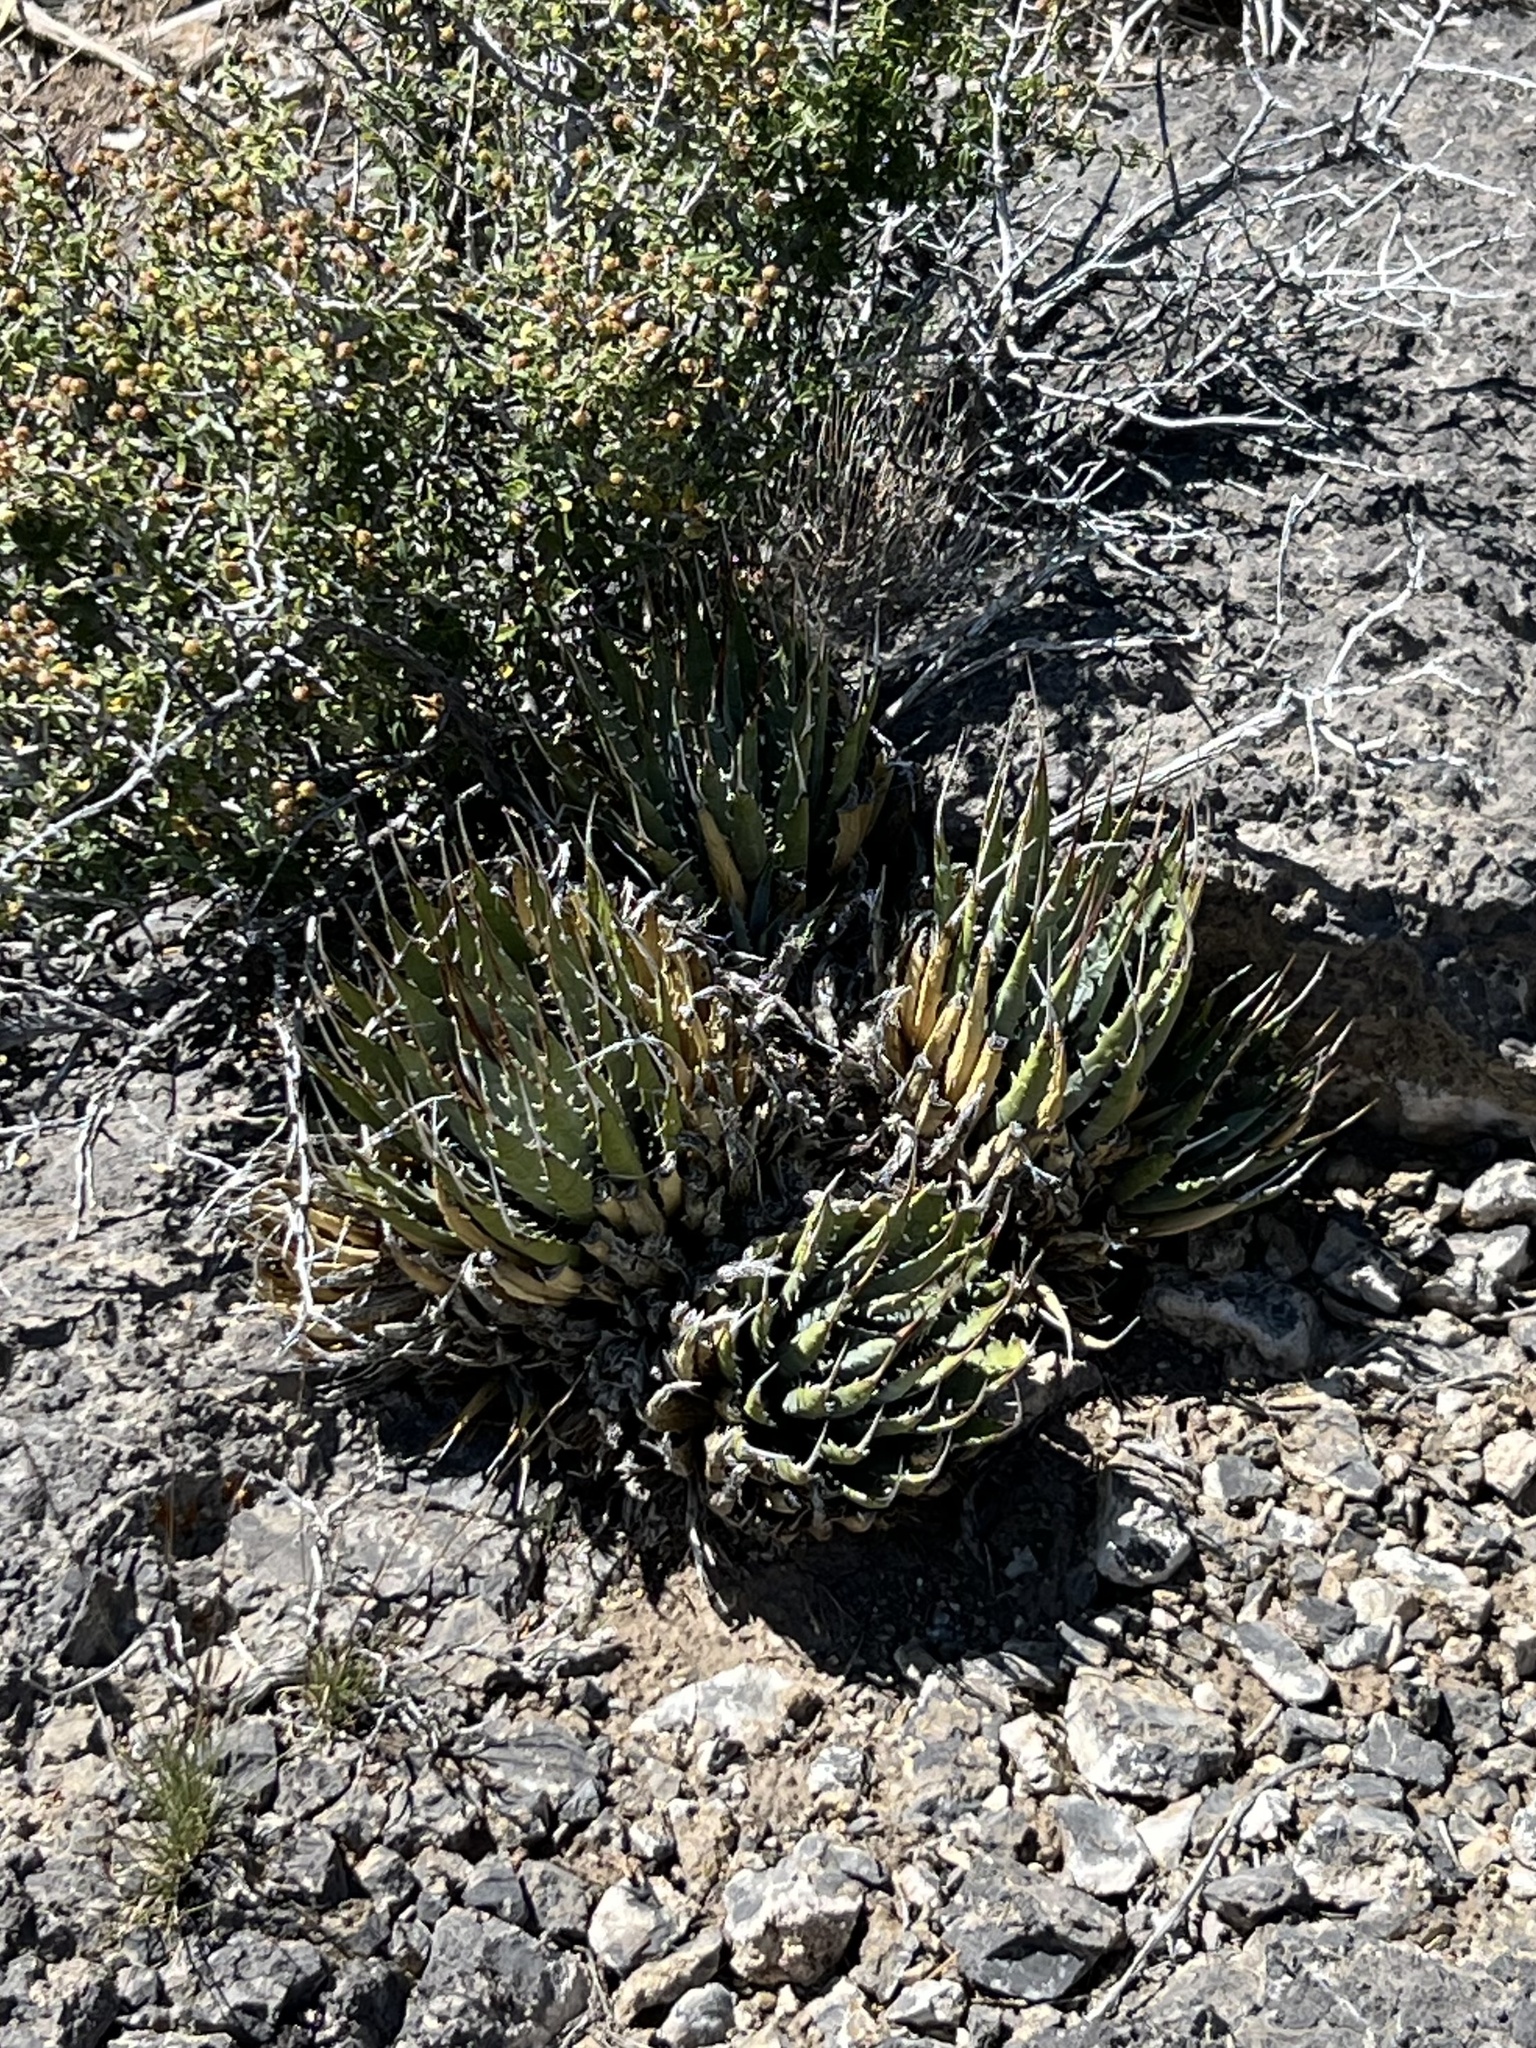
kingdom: Plantae
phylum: Tracheophyta
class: Liliopsida
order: Asparagales
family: Asparagaceae
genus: Agave
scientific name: Agave utahensis
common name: Utah agave
